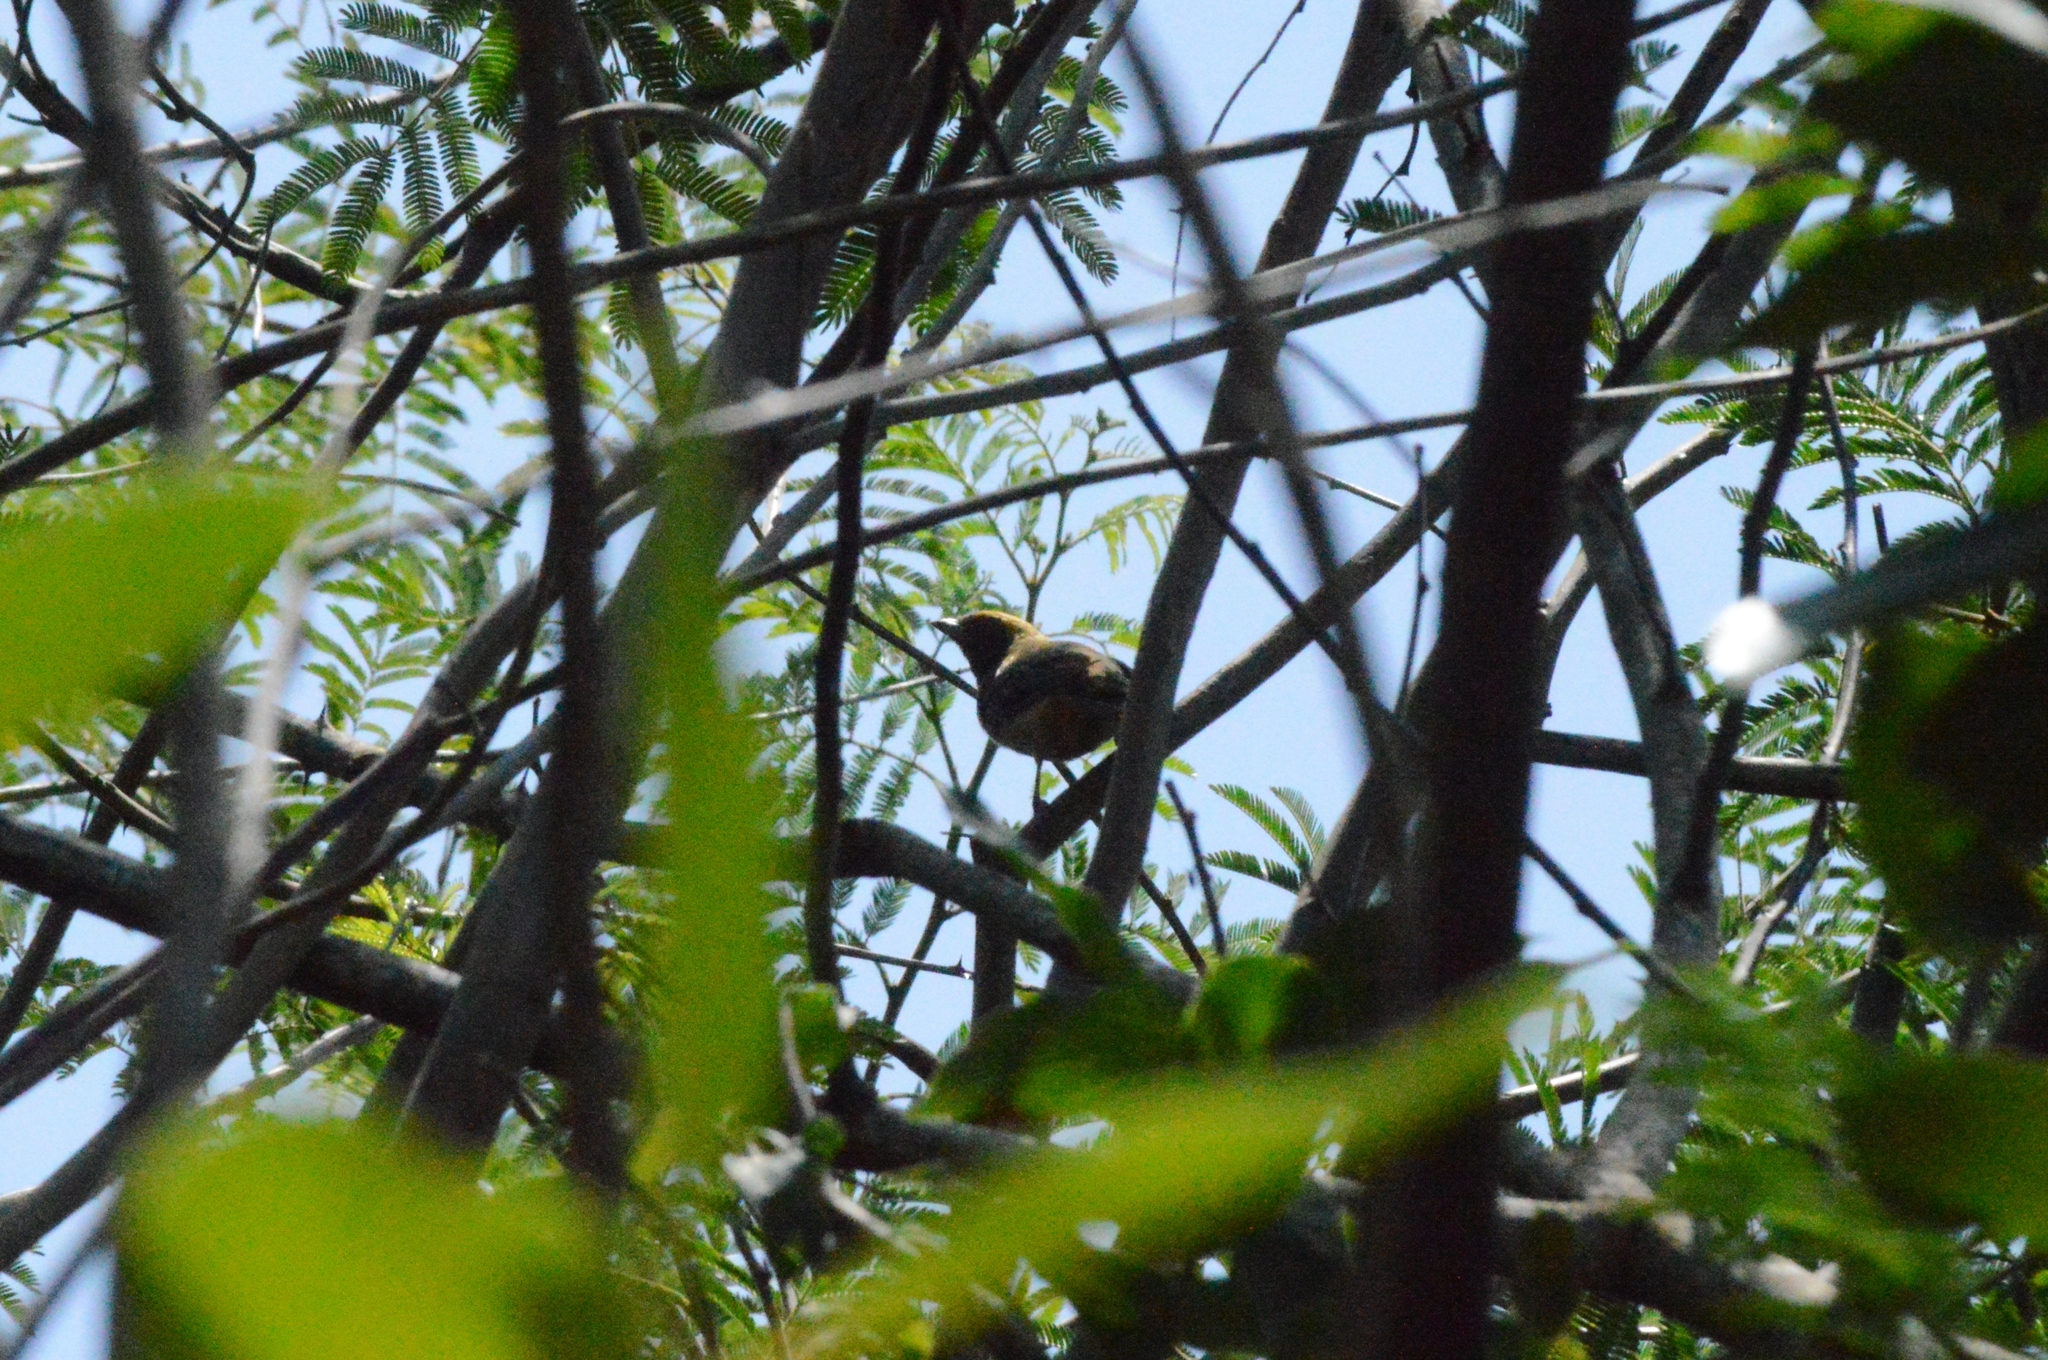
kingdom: Animalia
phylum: Chordata
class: Aves
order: Passeriformes
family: Thraupidae
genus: Stilpnia
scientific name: Stilpnia cayana
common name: Burnished-buff tanager
